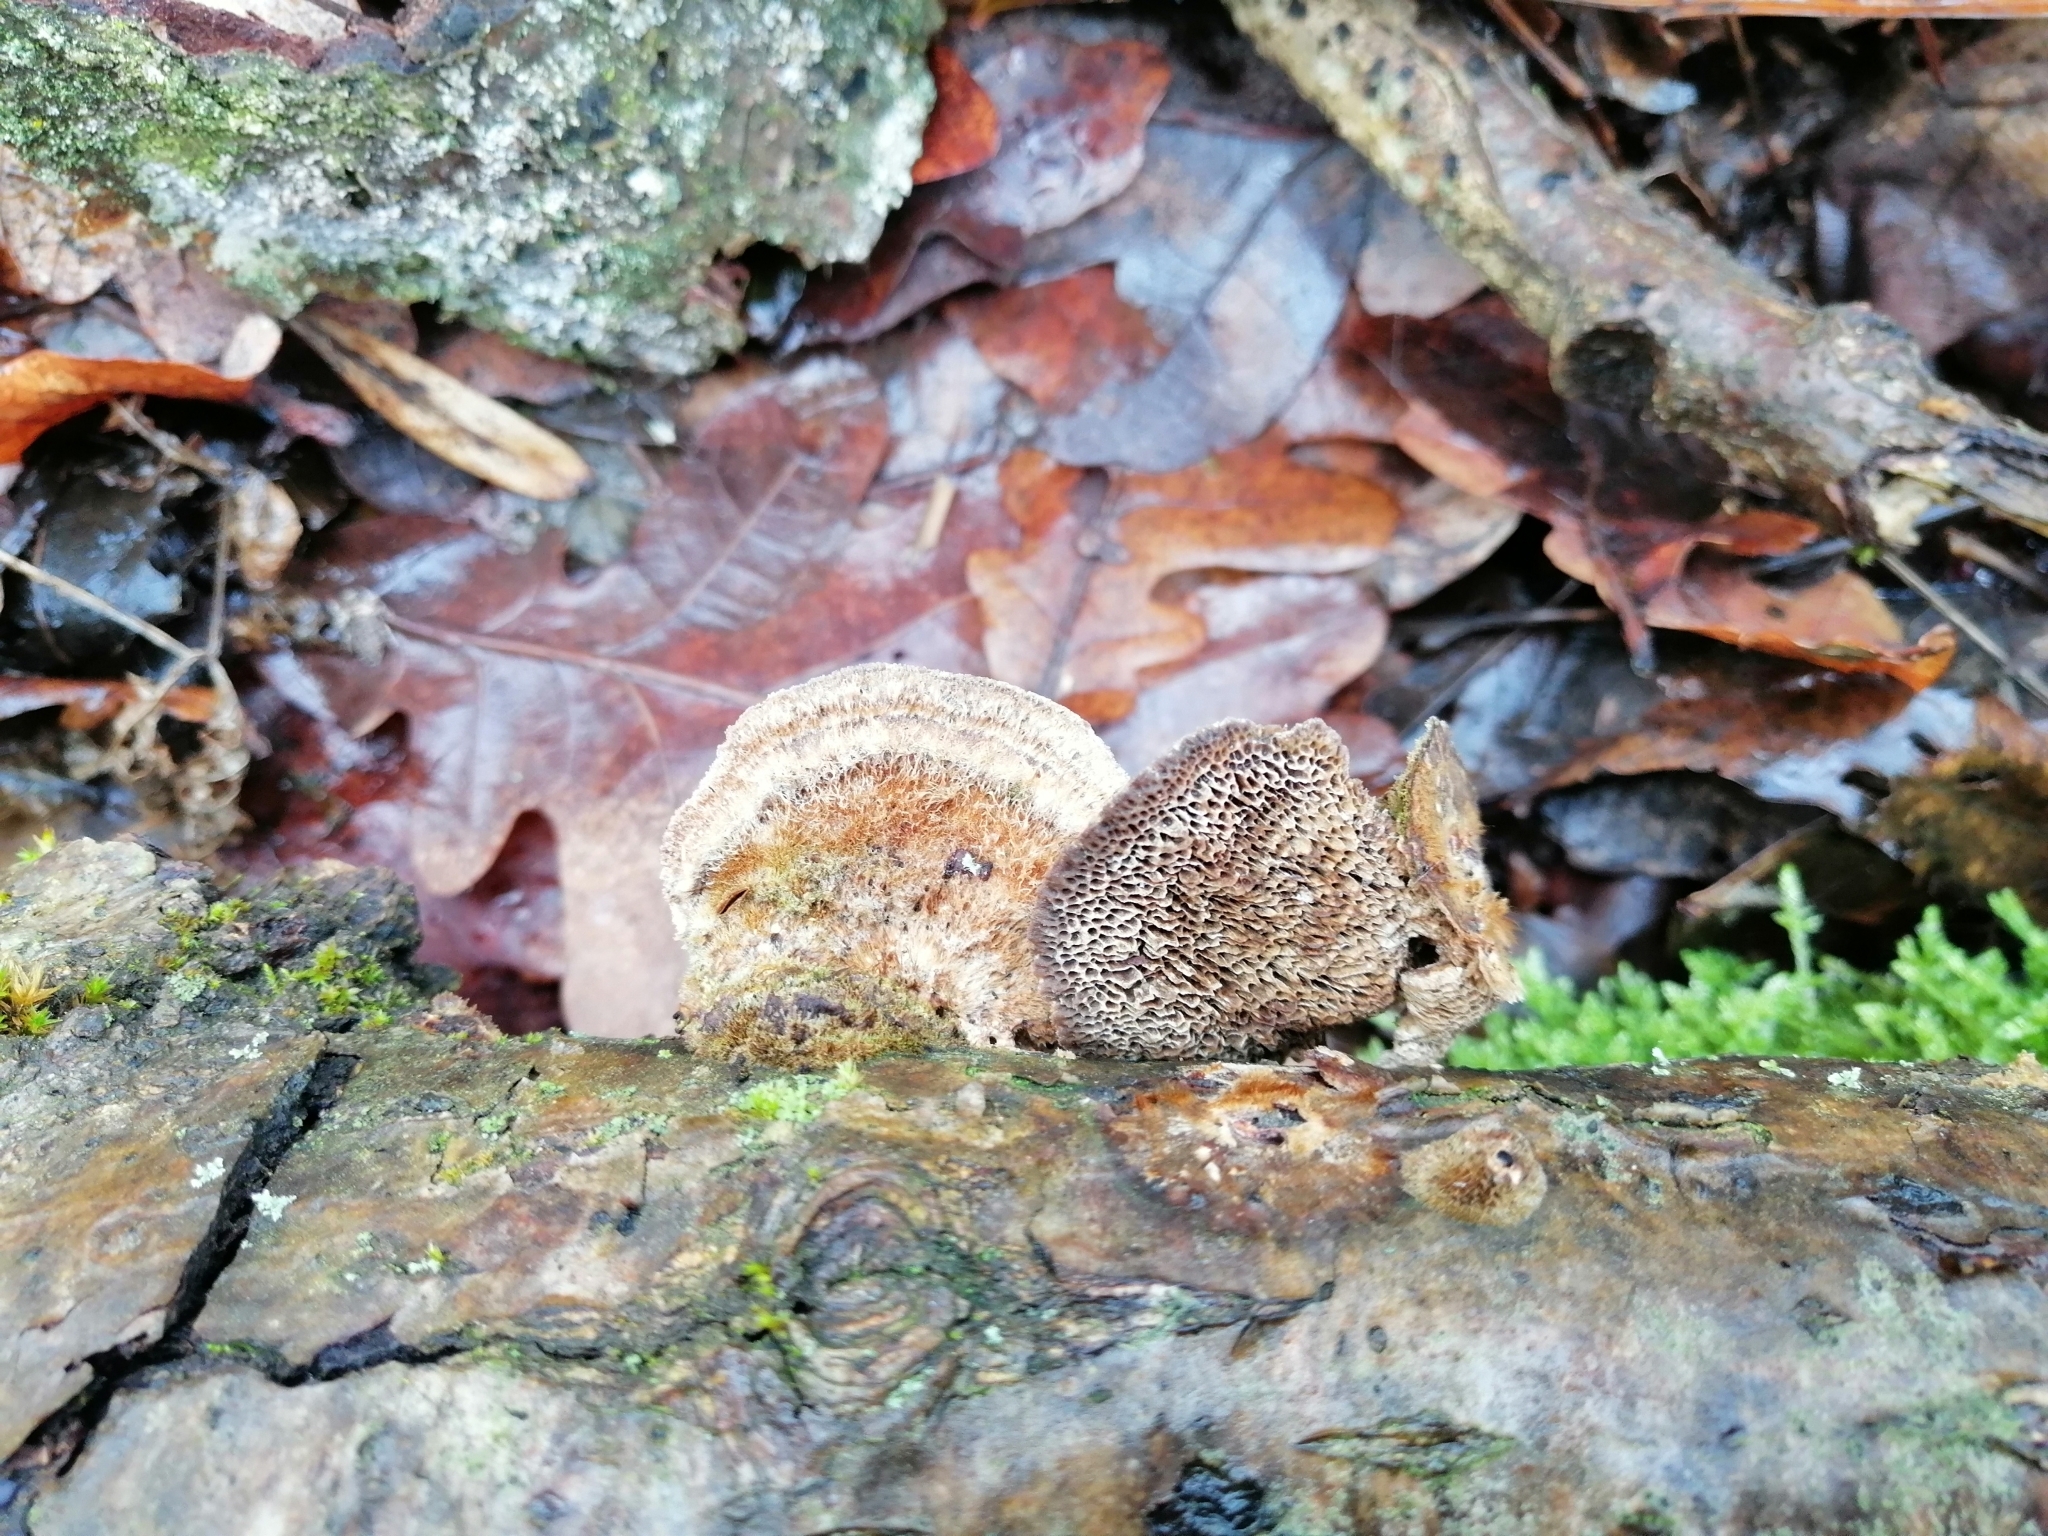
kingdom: Fungi
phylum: Basidiomycota
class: Agaricomycetes
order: Polyporales
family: Polyporaceae
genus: Coriolopsis
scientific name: Coriolopsis gallica
